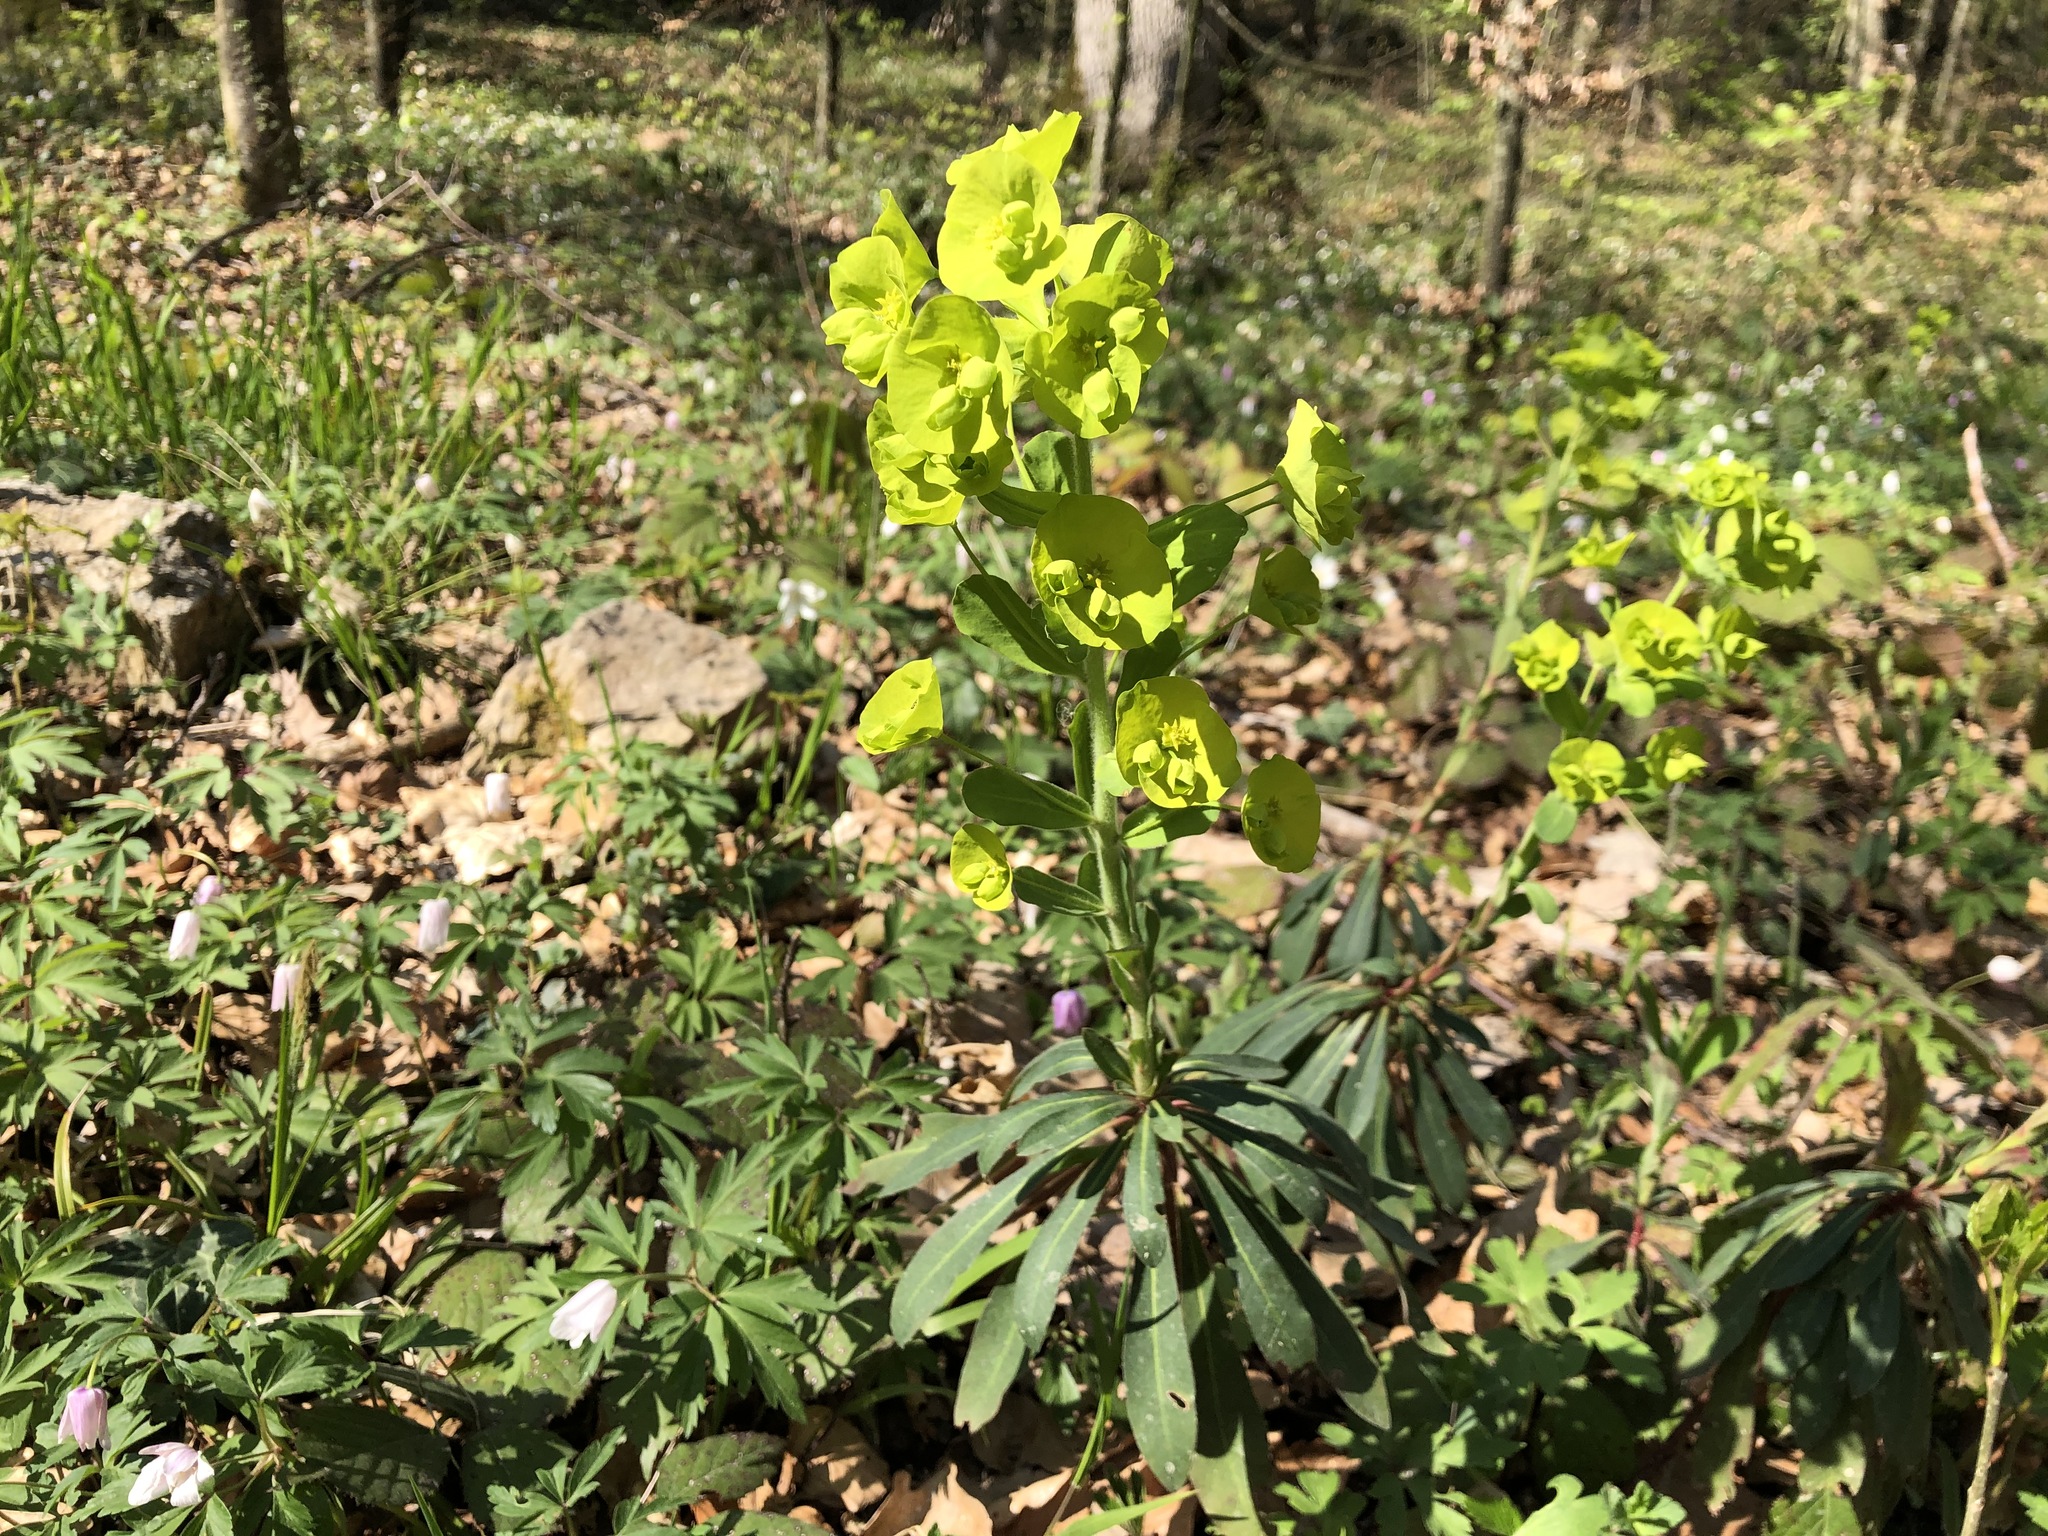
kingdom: Plantae
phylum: Tracheophyta
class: Magnoliopsida
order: Malpighiales
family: Euphorbiaceae
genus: Euphorbia
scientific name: Euphorbia amygdaloides
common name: Wood spurge
